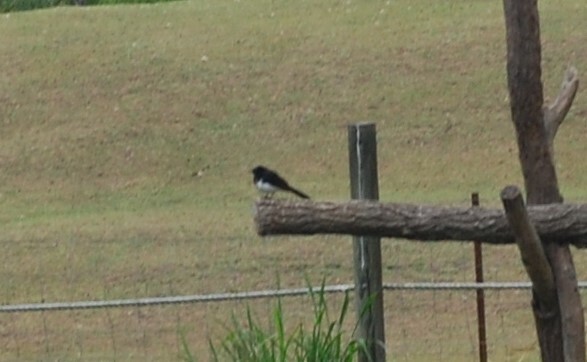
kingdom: Animalia
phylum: Chordata
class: Aves
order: Passeriformes
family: Rhipiduridae
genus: Rhipidura
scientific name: Rhipidura leucophrys
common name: Willie wagtail
